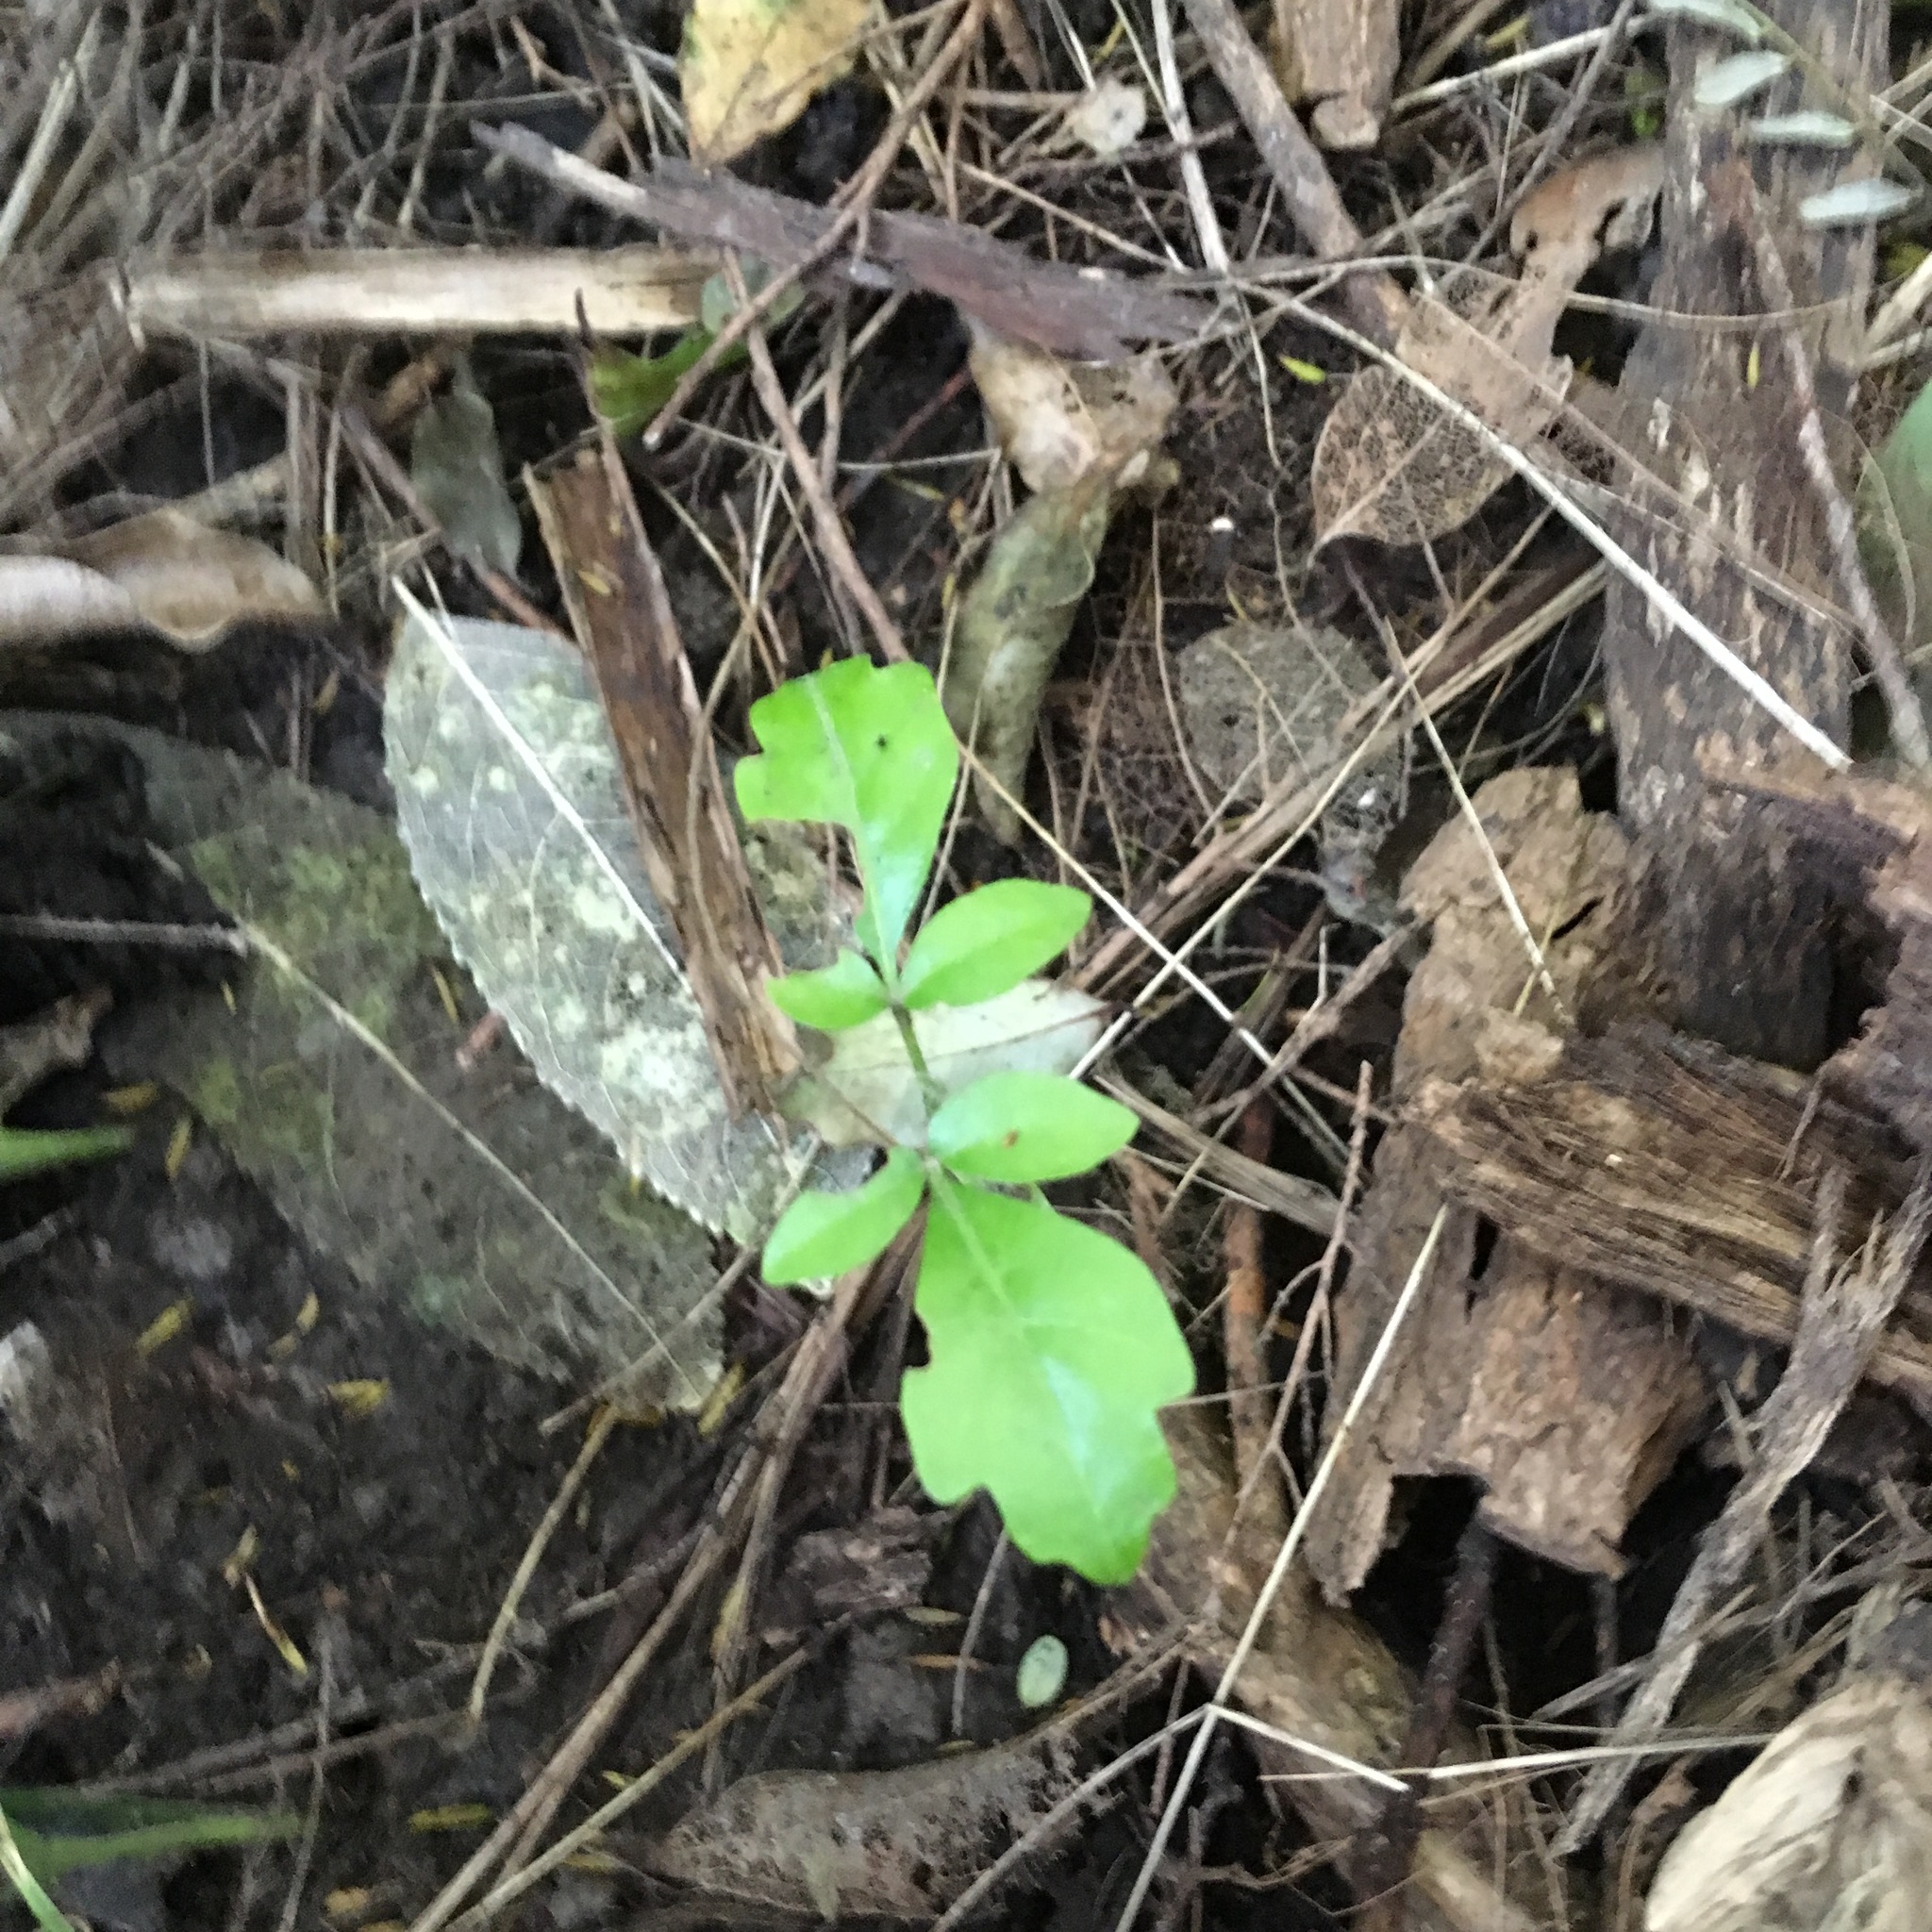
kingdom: Plantae
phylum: Tracheophyta
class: Magnoliopsida
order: Lamiales
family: Lamiaceae
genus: Vitex
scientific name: Vitex lucens
